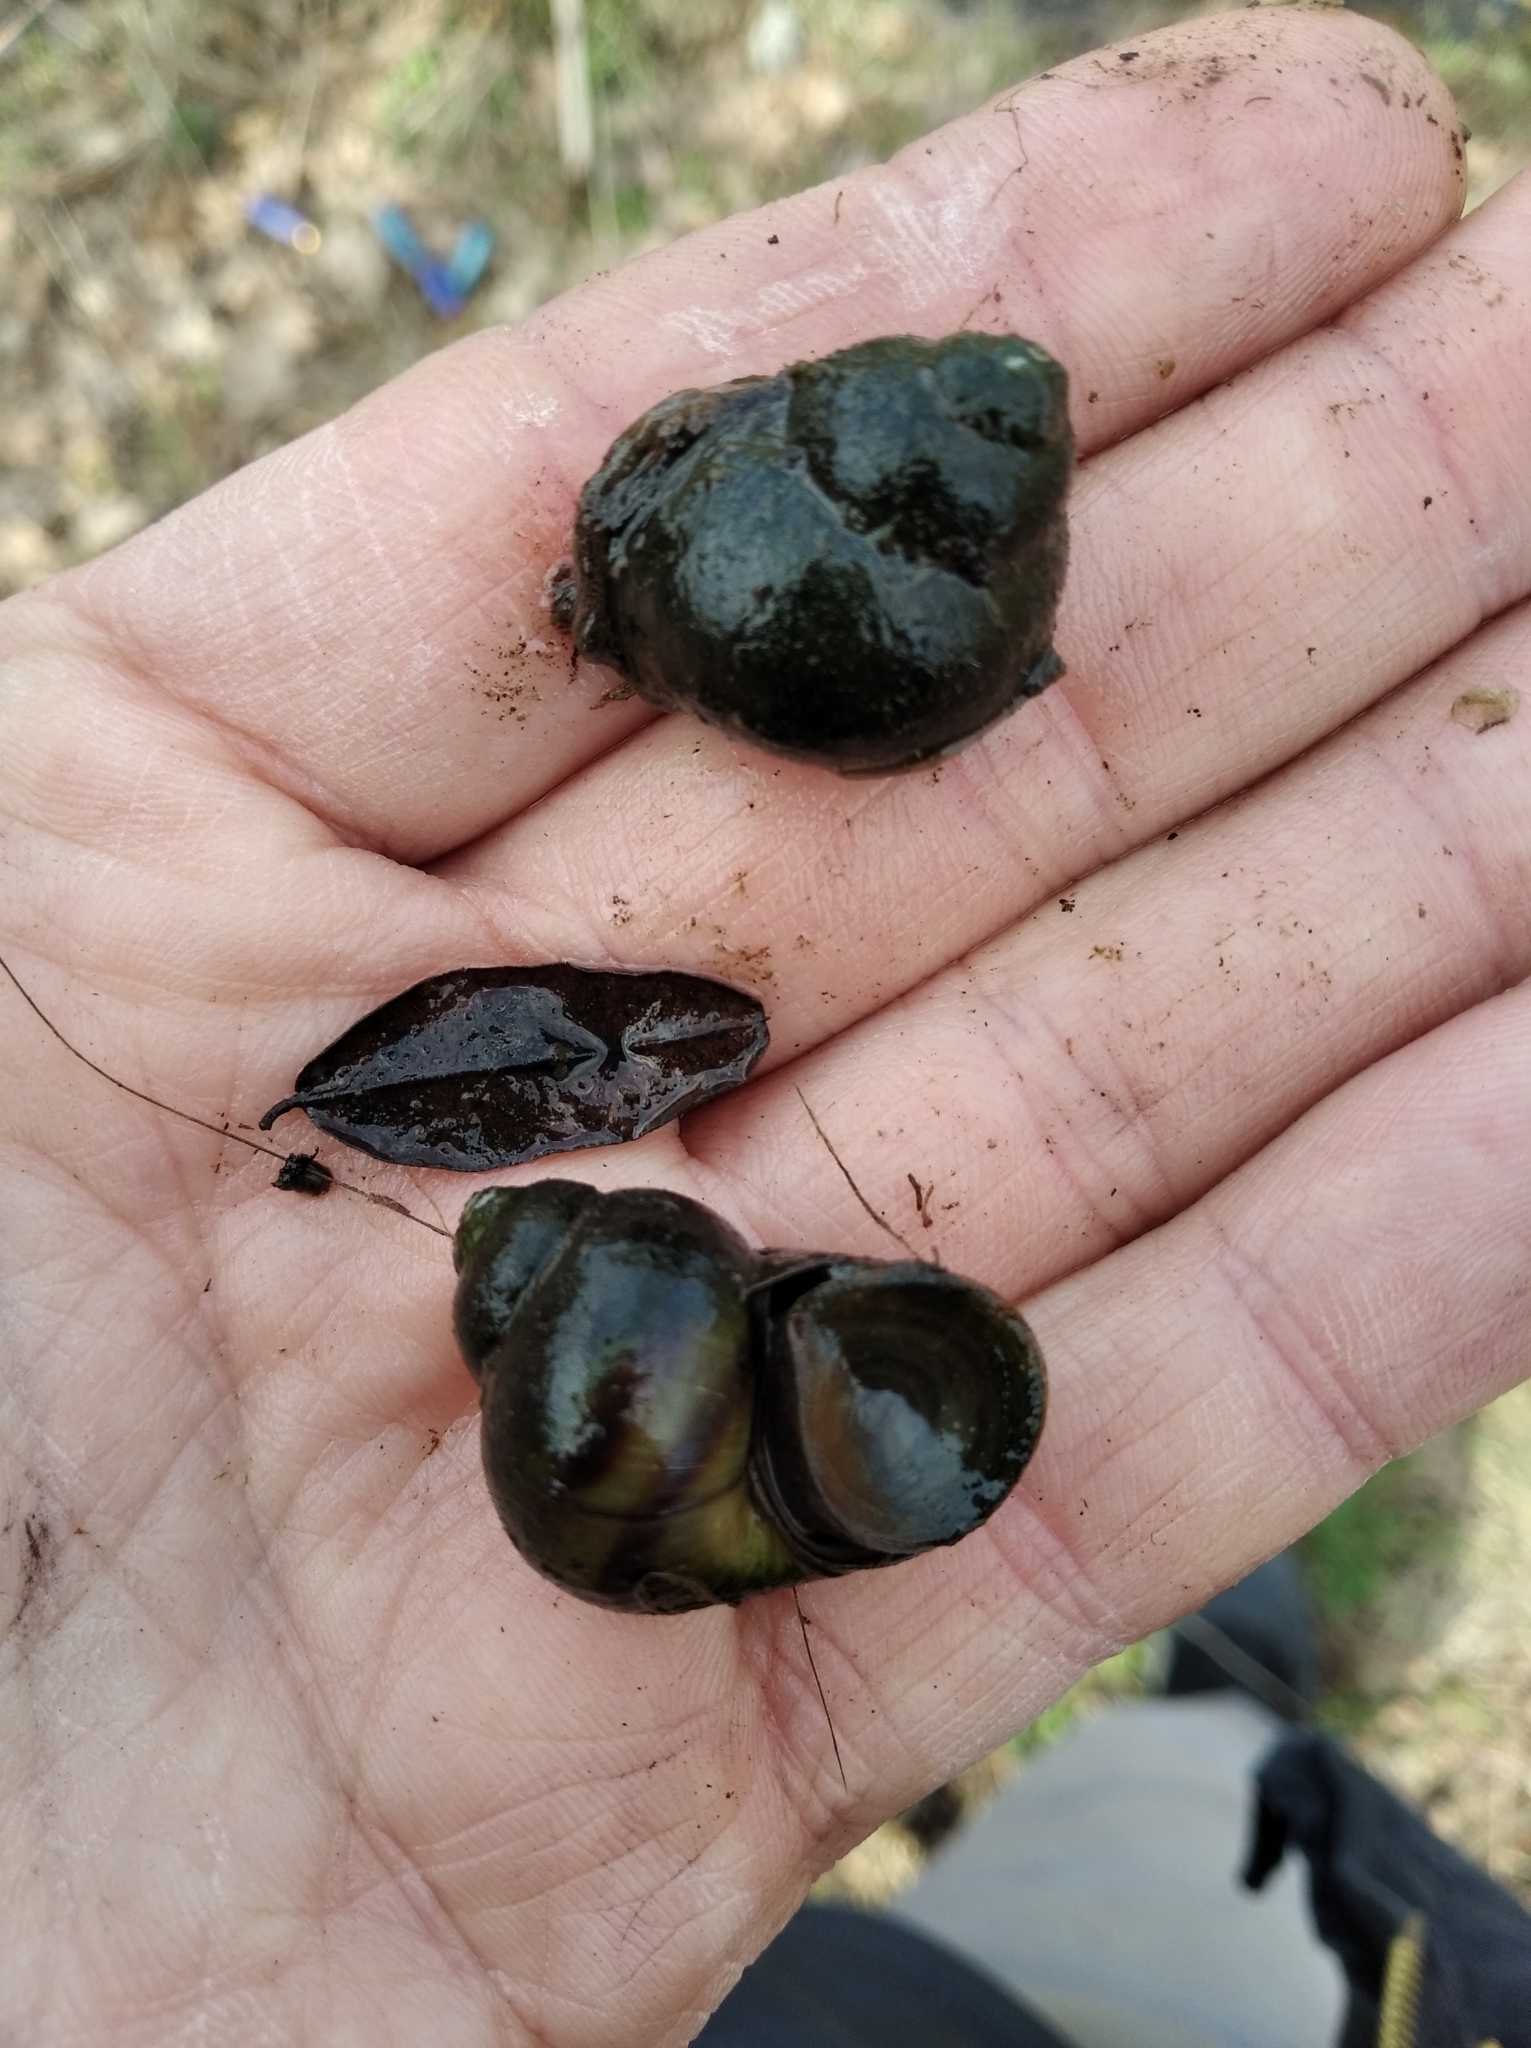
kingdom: Animalia
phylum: Mollusca
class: Gastropoda
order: Architaenioglossa
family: Viviparidae
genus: Viviparus
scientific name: Viviparus viviparus
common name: River snail
